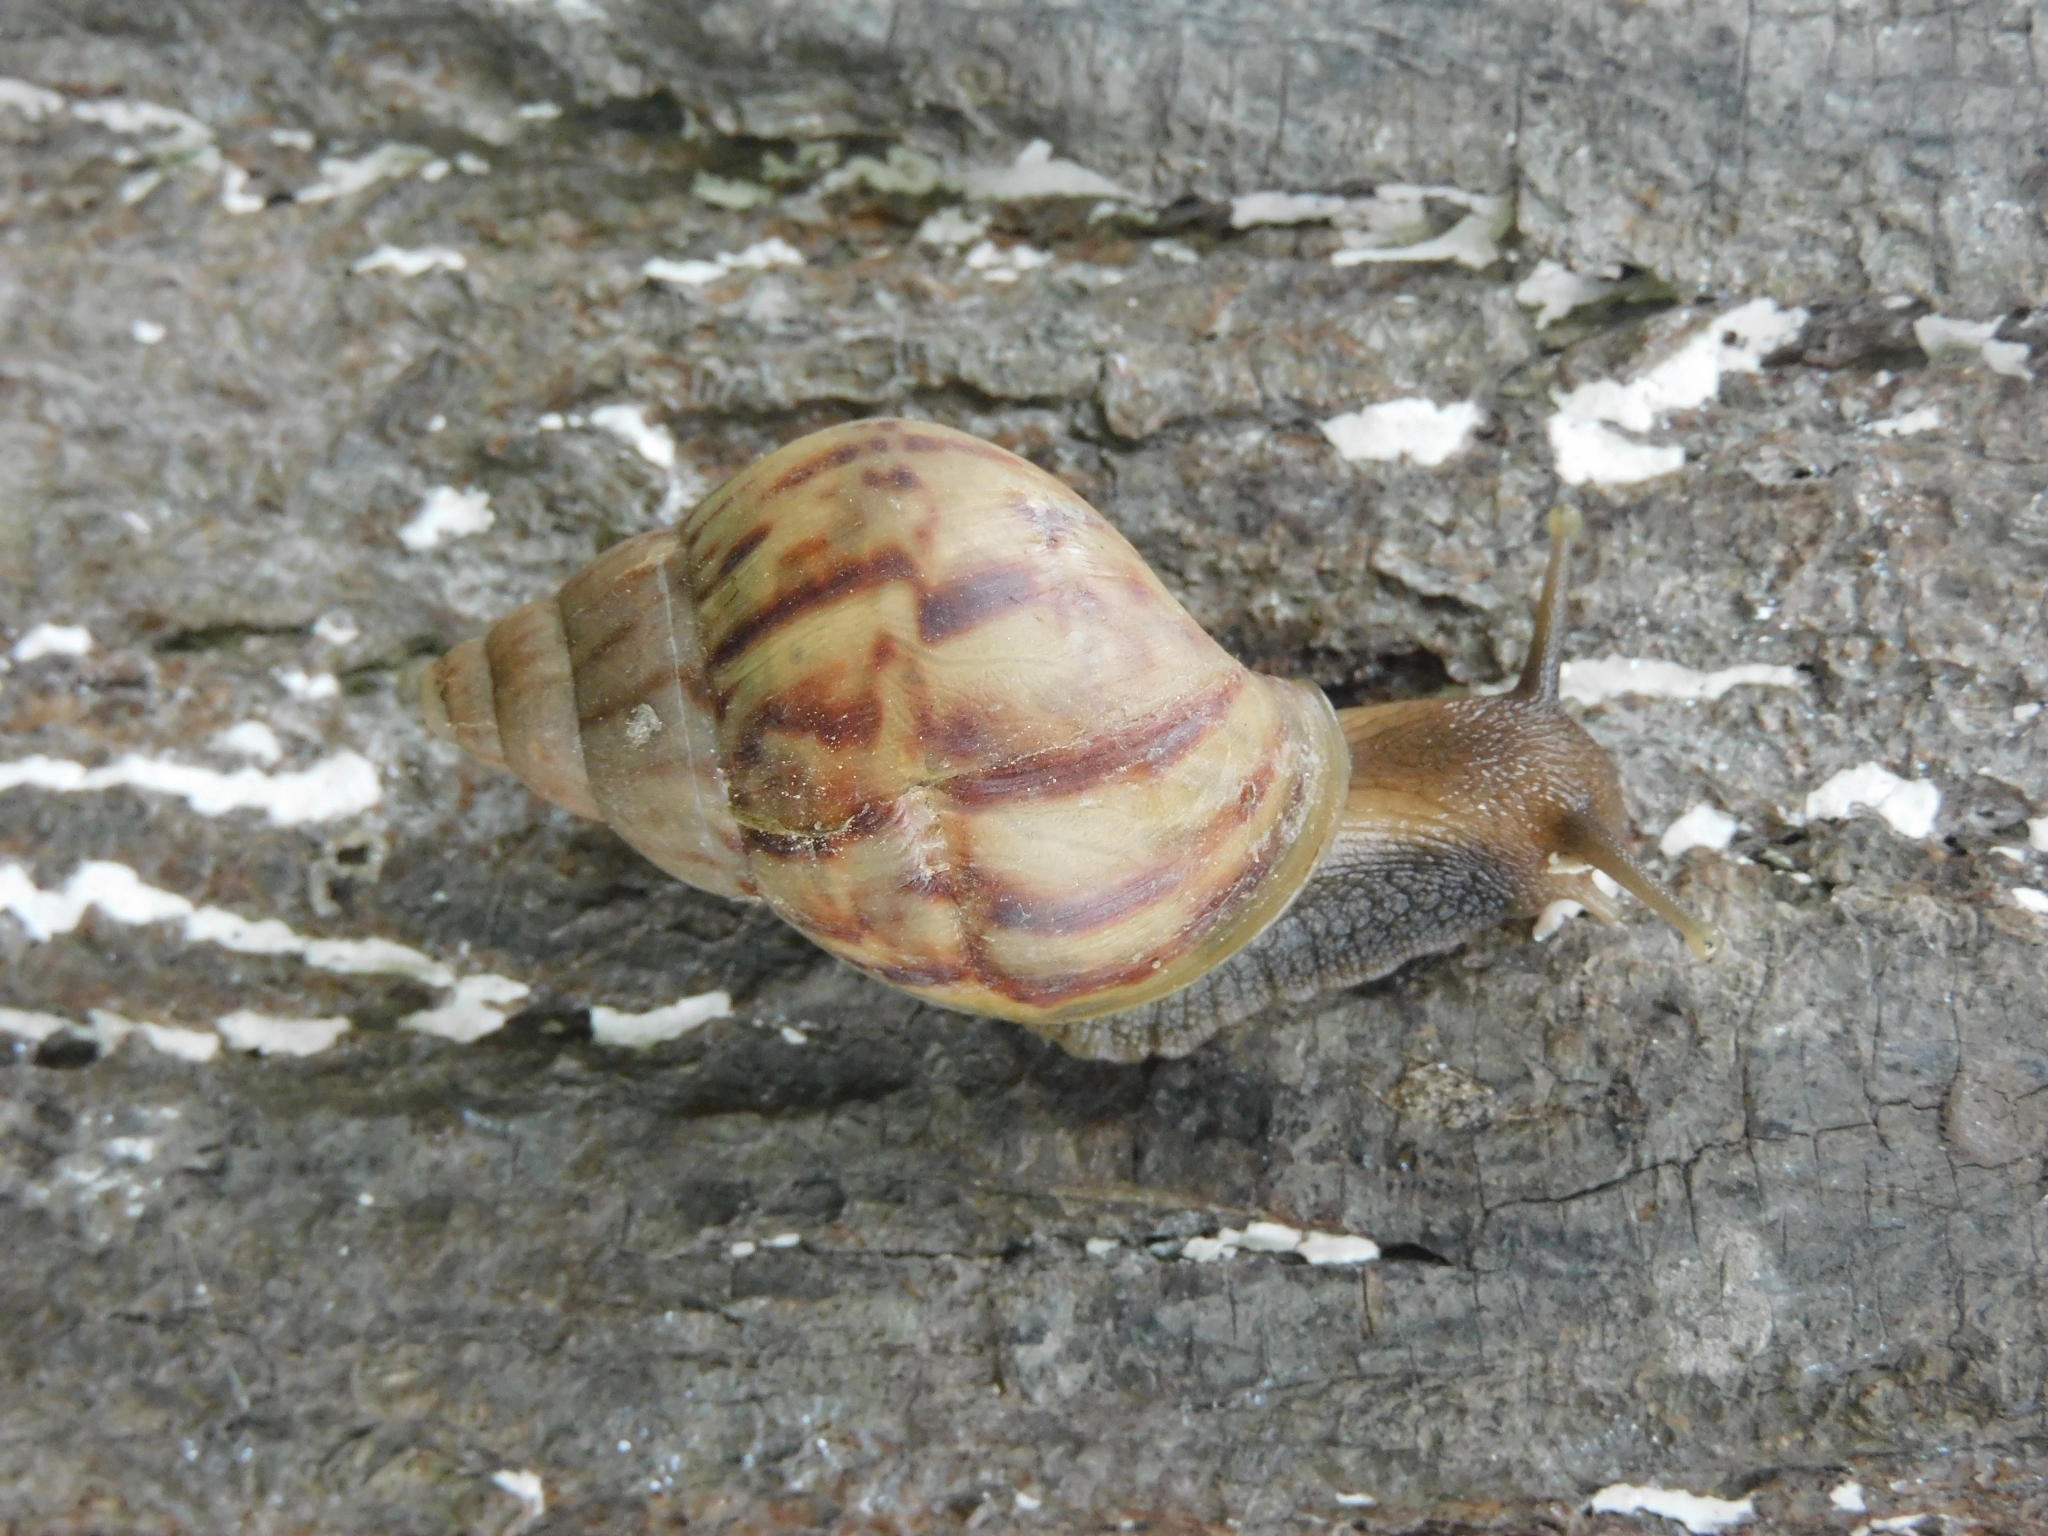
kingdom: Animalia
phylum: Mollusca
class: Gastropoda
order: Stylommatophora
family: Achatinidae
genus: Lissachatina
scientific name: Lissachatina fulica
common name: Giant african snail
